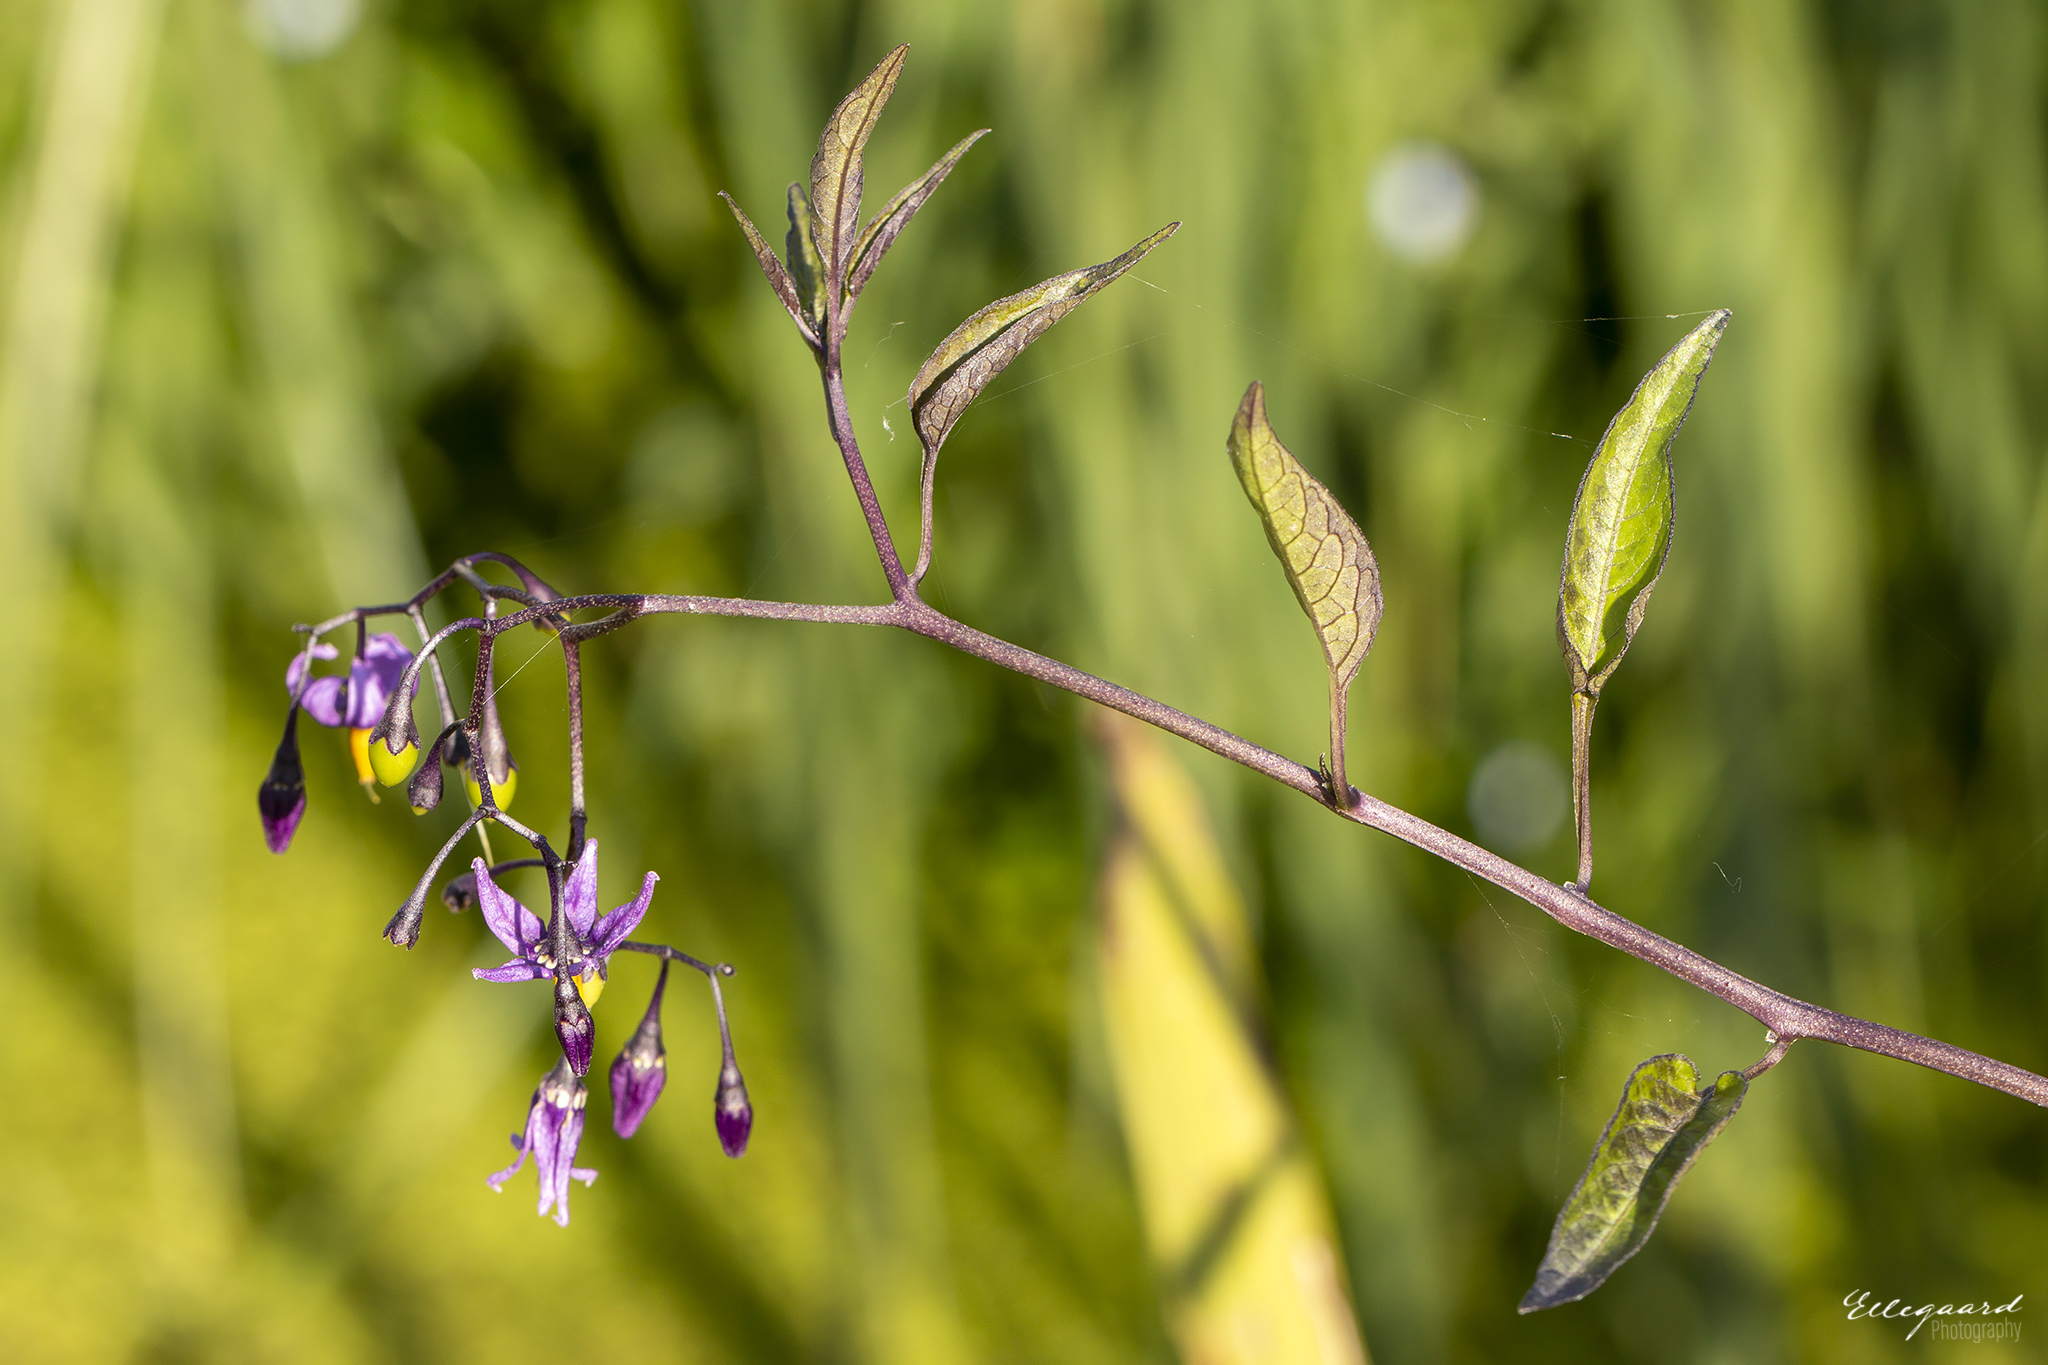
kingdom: Plantae
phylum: Tracheophyta
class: Magnoliopsida
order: Solanales
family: Solanaceae
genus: Solanum
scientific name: Solanum dulcamara
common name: Climbing nightshade
